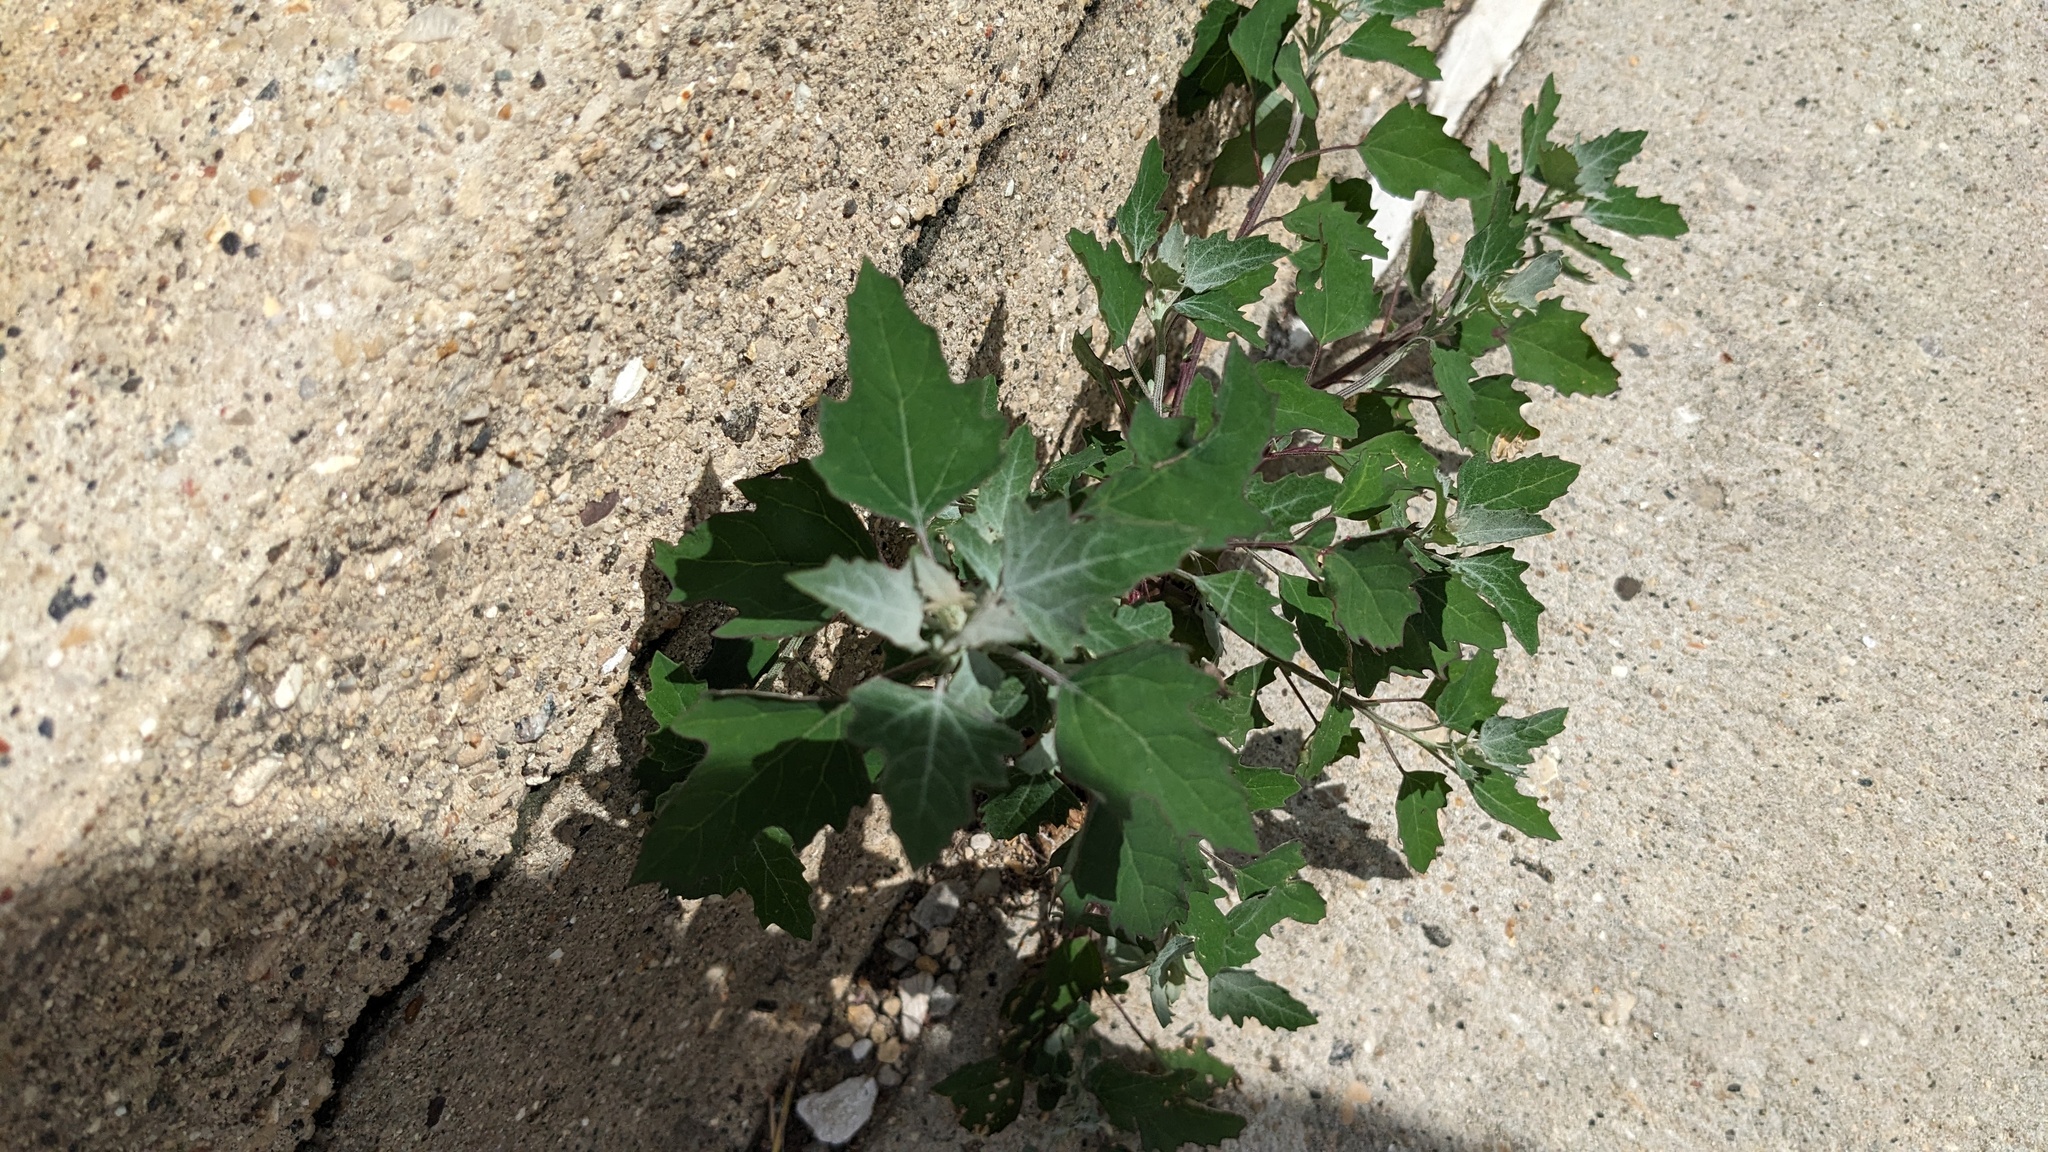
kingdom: Plantae
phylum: Tracheophyta
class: Magnoliopsida
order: Caryophyllales
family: Amaranthaceae
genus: Chenopodium
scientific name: Chenopodium album
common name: Fat-hen
